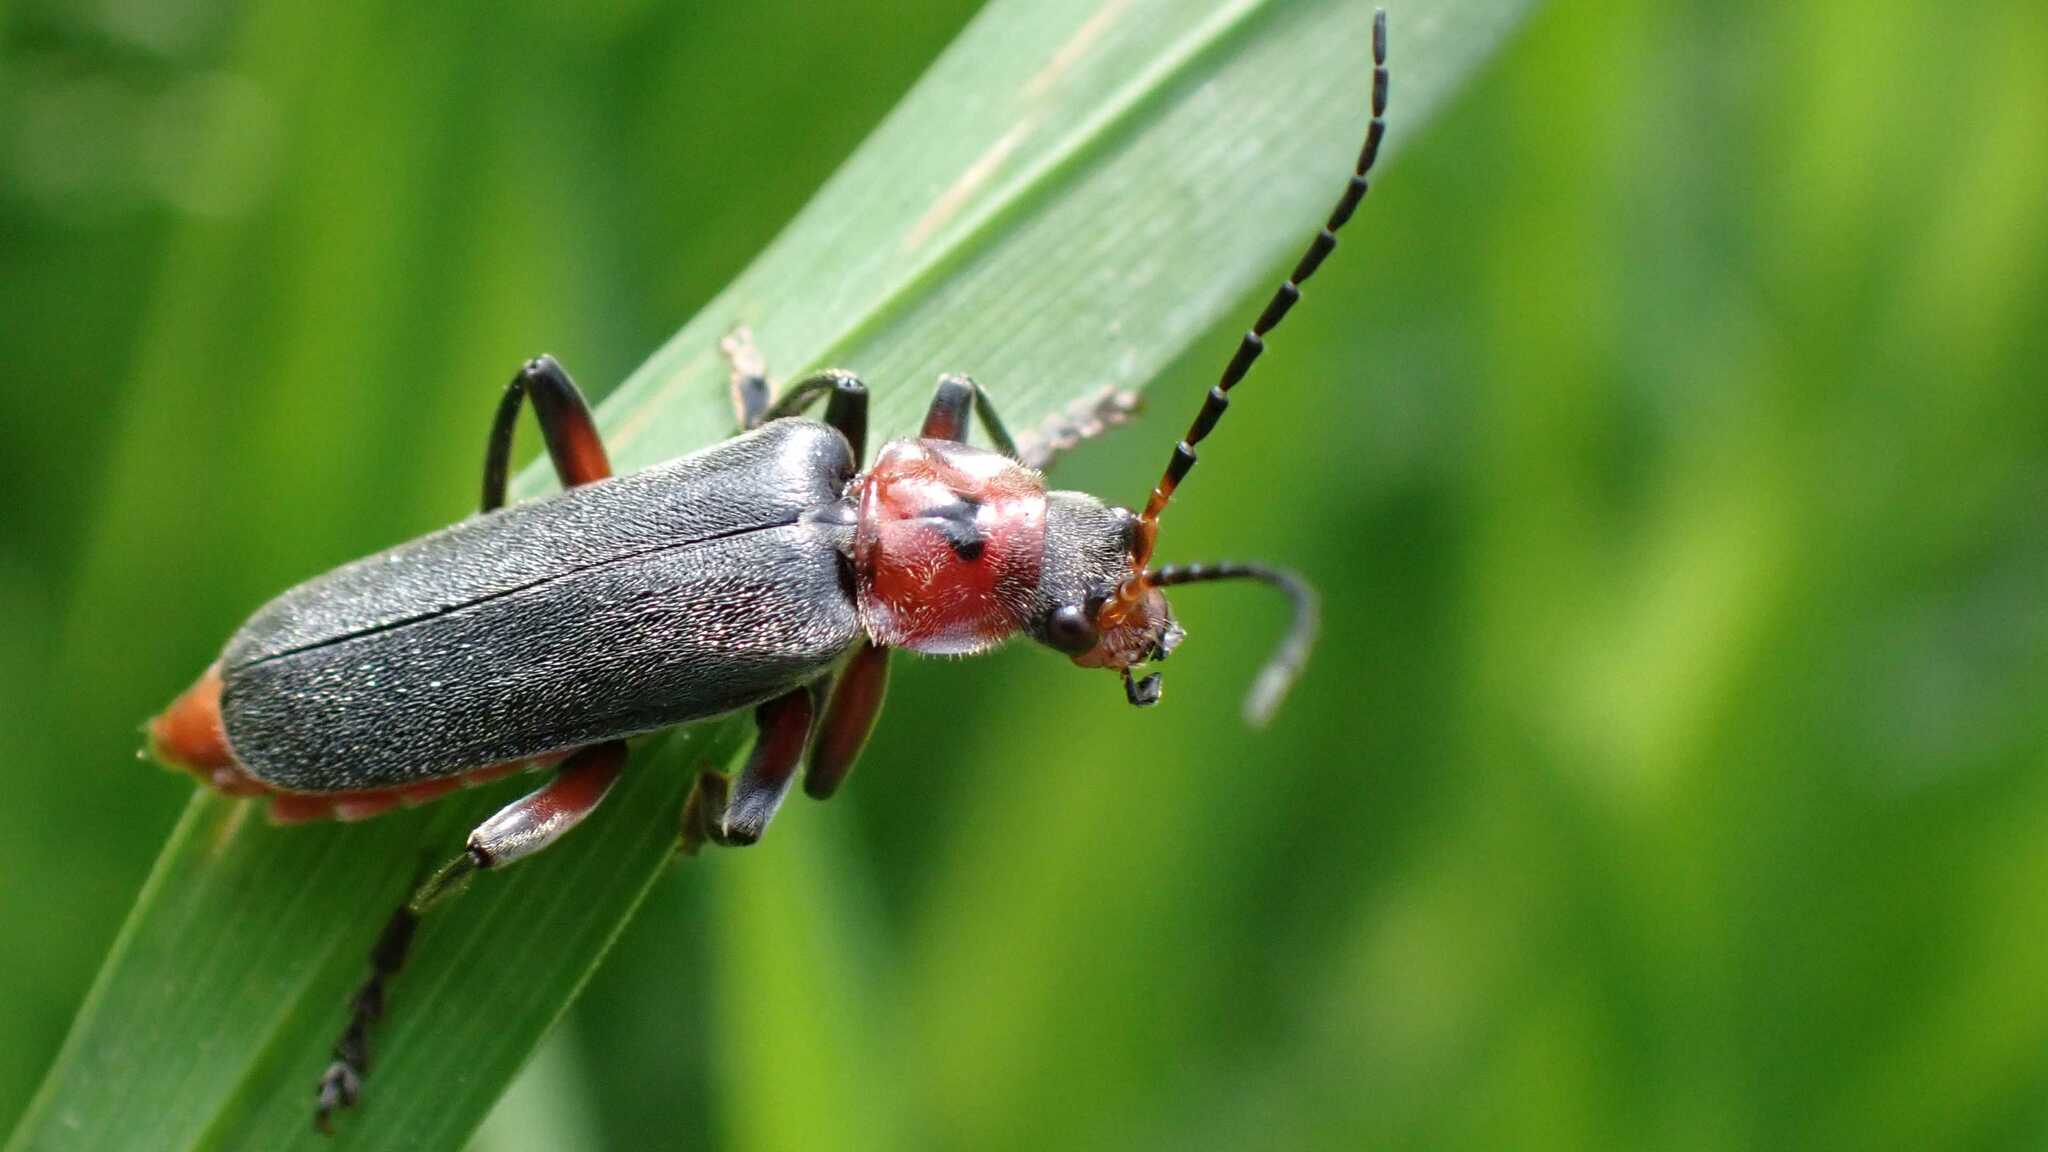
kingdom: Animalia
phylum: Arthropoda
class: Insecta
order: Coleoptera
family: Cantharidae
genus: Cantharis
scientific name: Cantharis rustica
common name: Soldier beetle
